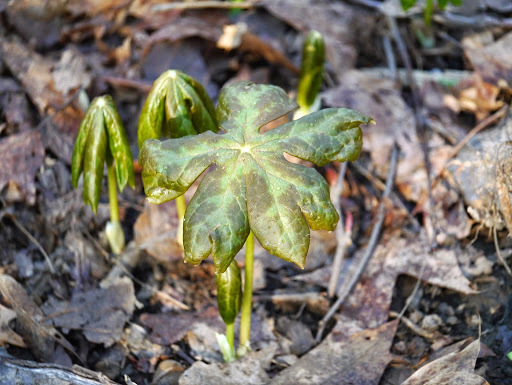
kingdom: Plantae
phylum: Tracheophyta
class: Magnoliopsida
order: Ranunculales
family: Berberidaceae
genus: Podophyllum
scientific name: Podophyllum peltatum
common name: Wild mandrake
